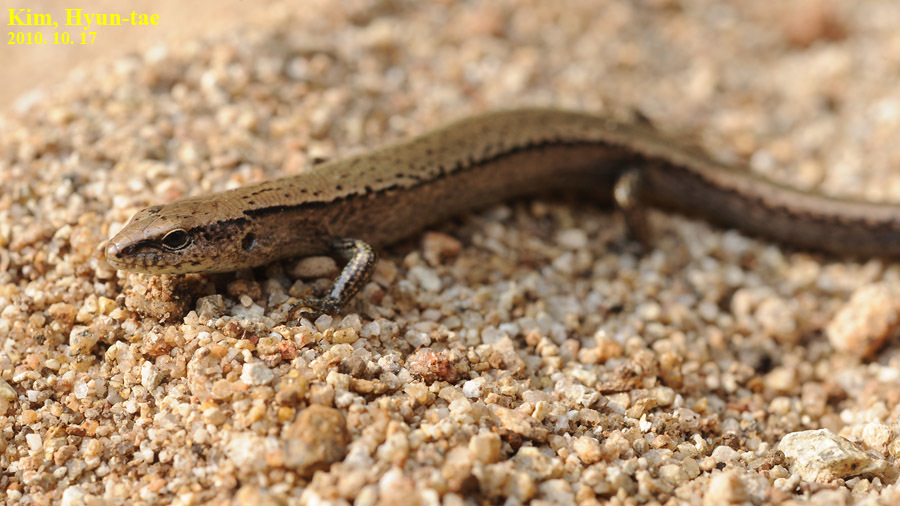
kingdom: Animalia
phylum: Chordata
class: Squamata
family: Scincidae
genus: Scincella
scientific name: Scincella vandenburghi
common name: Tsushima smooth skink
